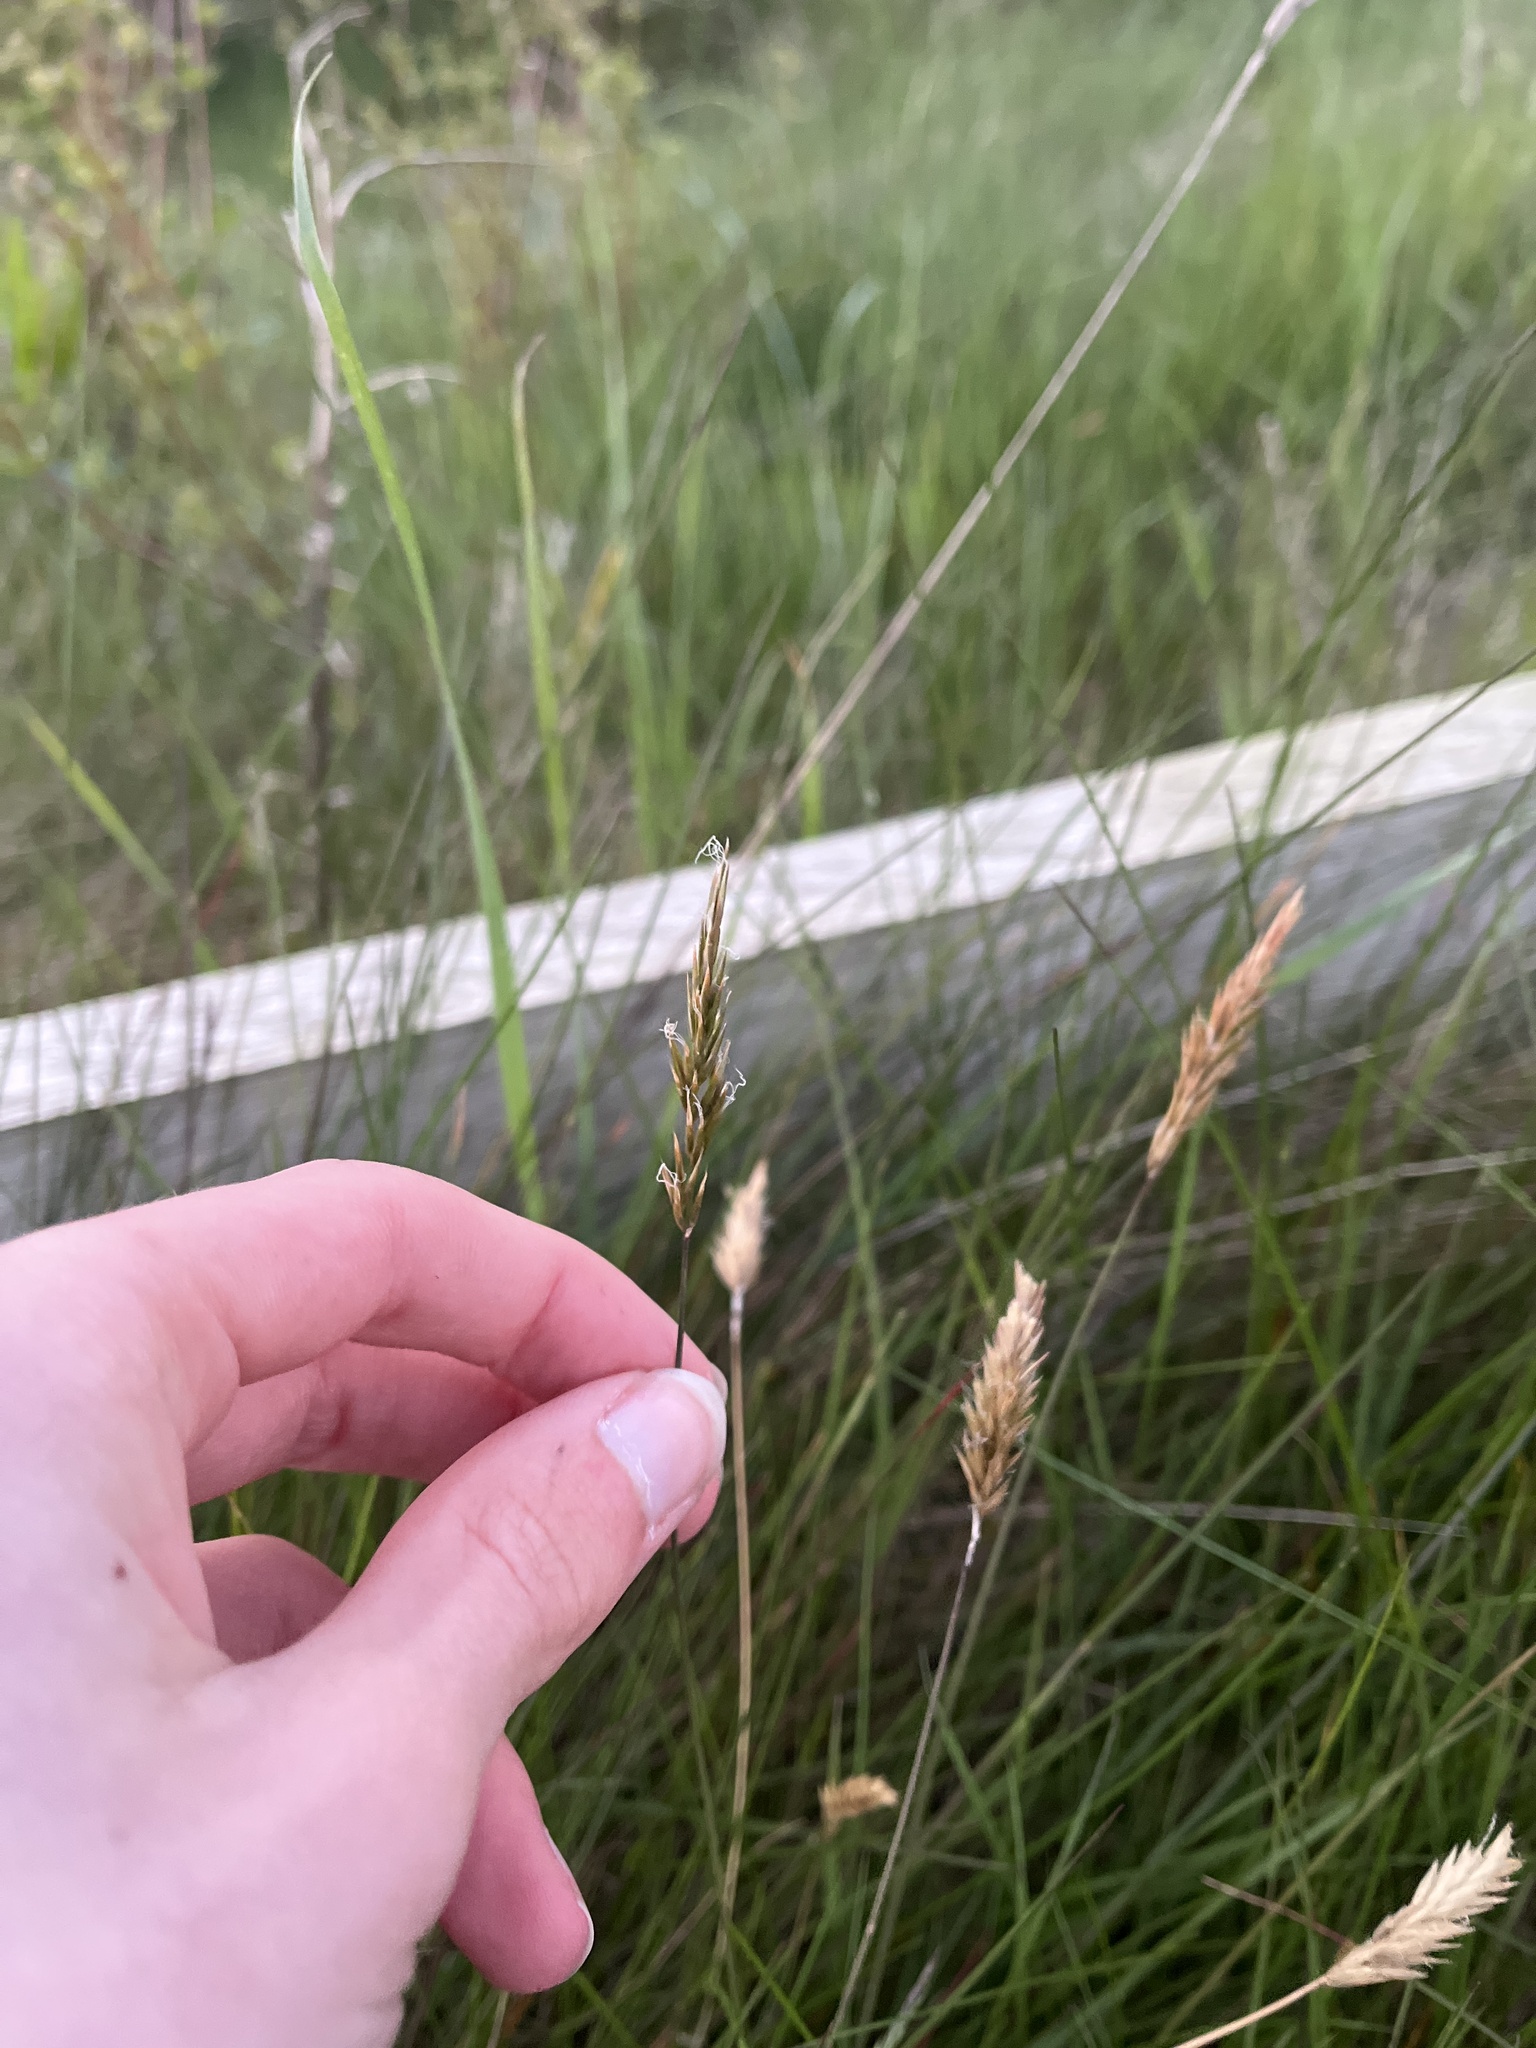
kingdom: Plantae
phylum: Tracheophyta
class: Liliopsida
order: Poales
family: Poaceae
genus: Anthoxanthum
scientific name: Anthoxanthum odoratum
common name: Sweet vernalgrass
